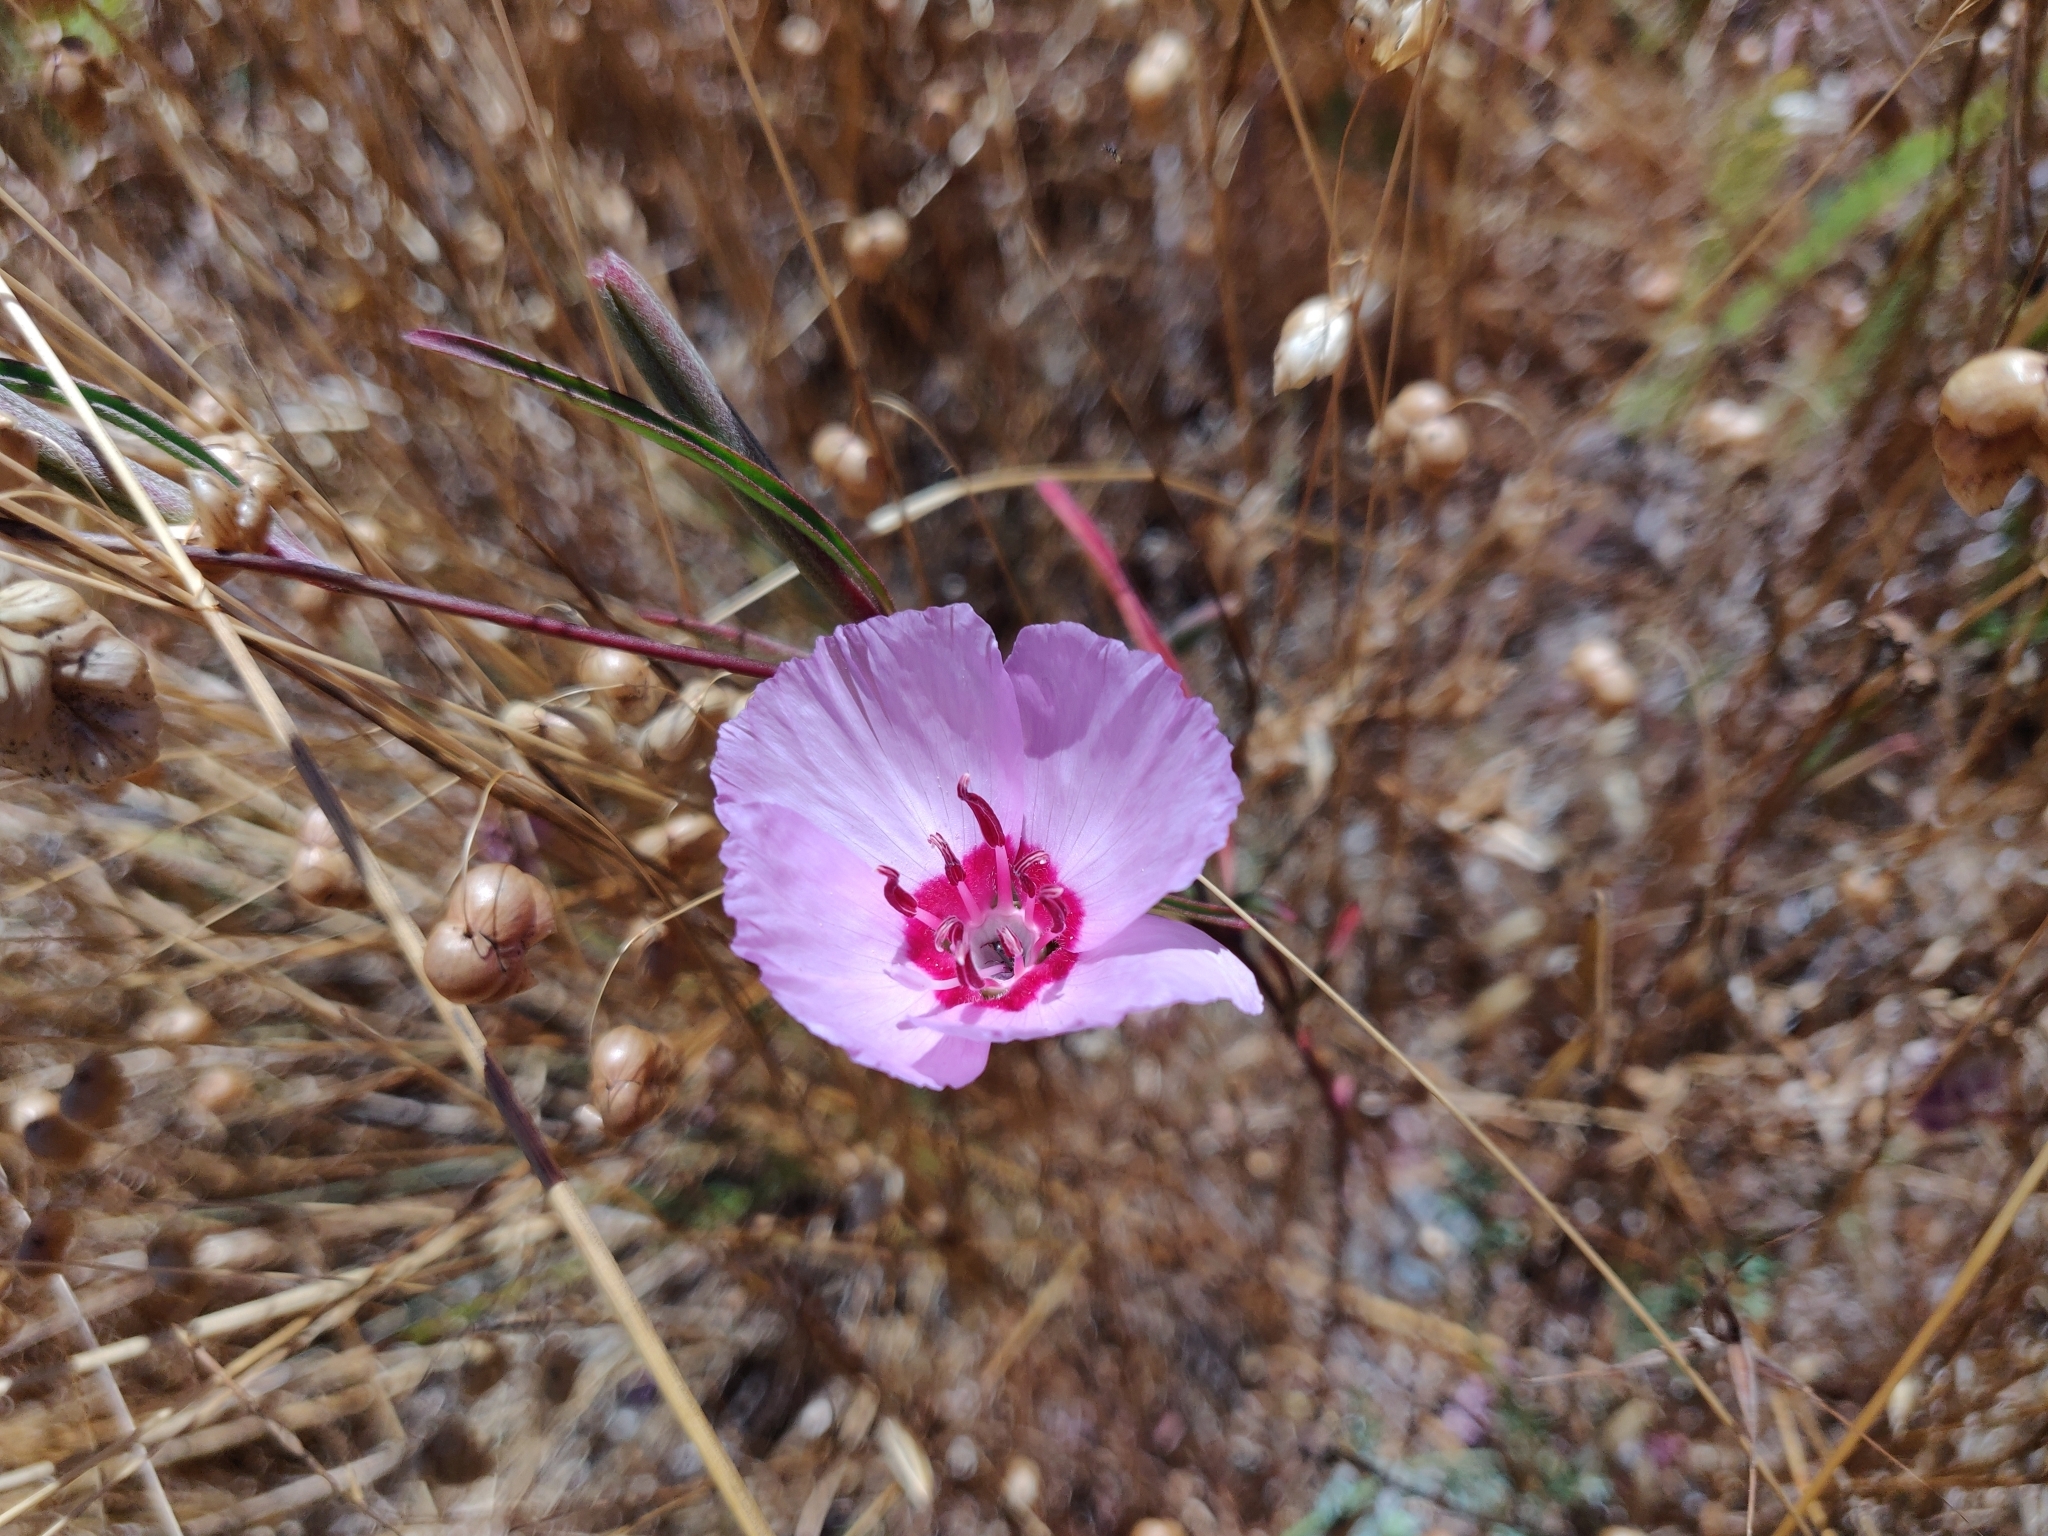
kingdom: Plantae
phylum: Tracheophyta
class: Magnoliopsida
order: Myrtales
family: Onagraceae
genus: Clarkia
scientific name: Clarkia rubicunda
